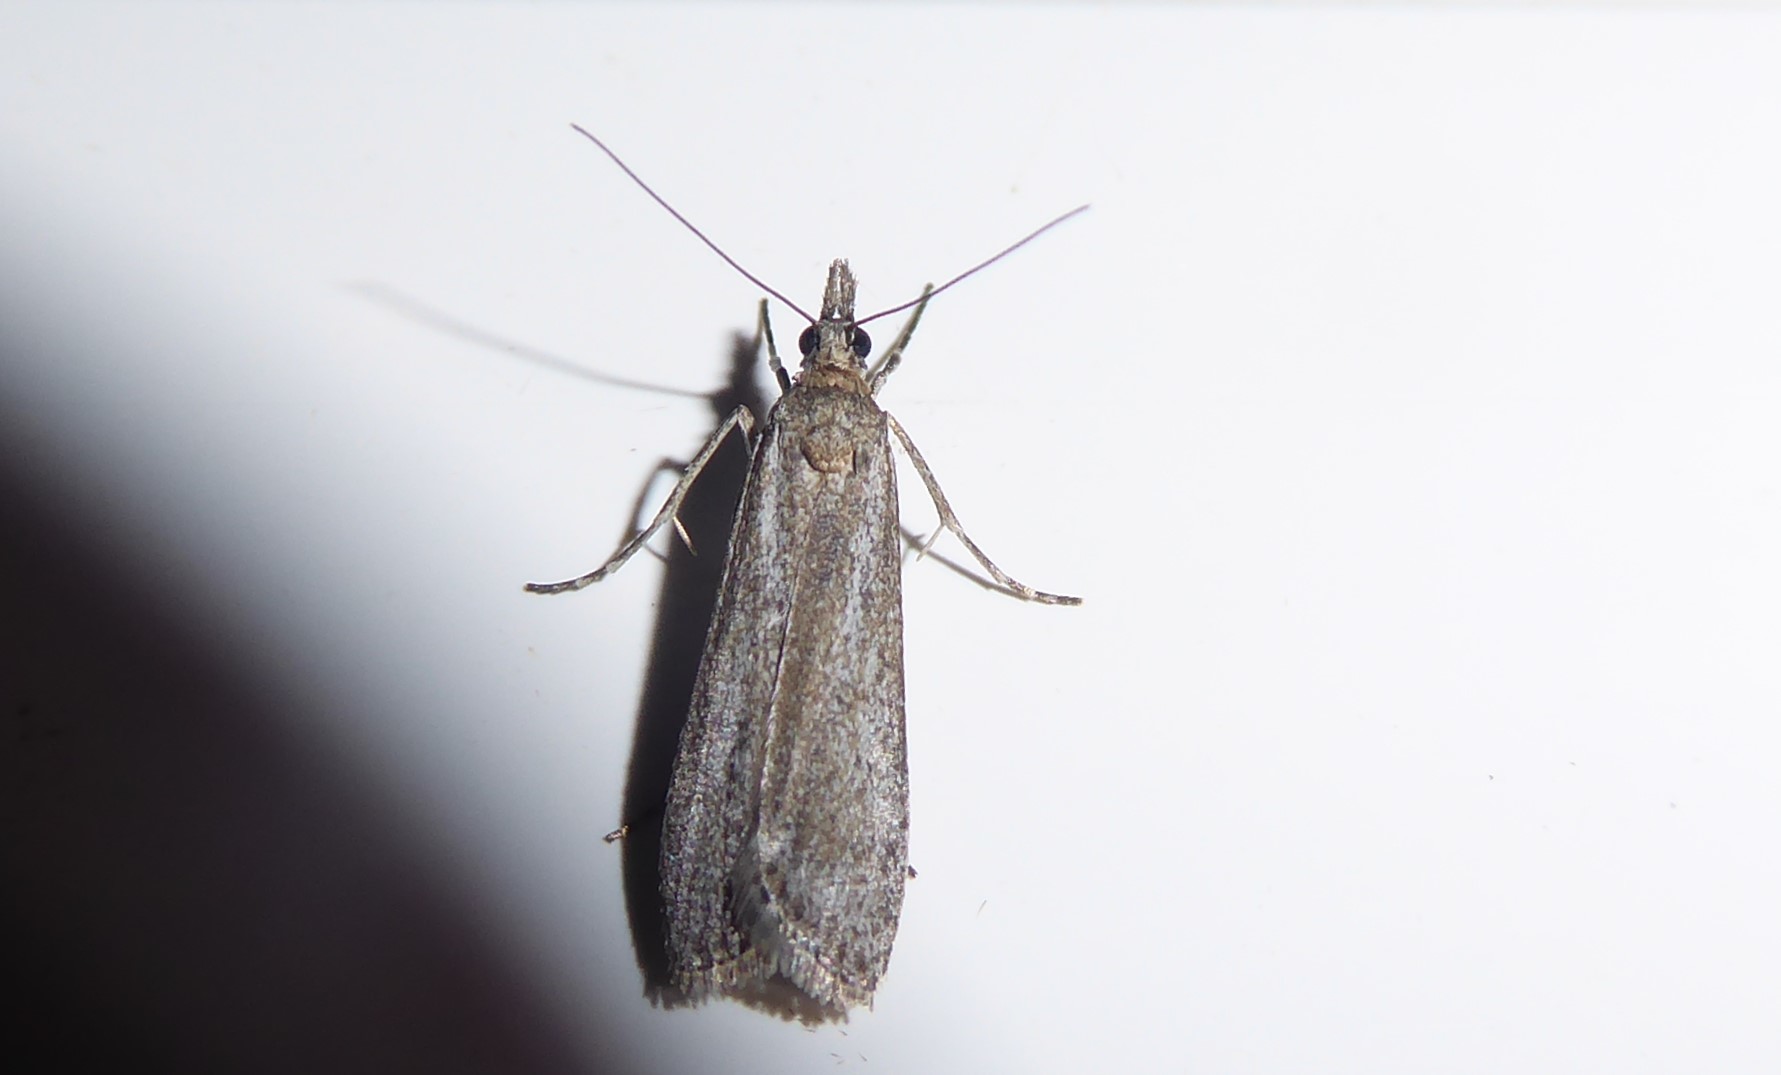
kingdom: Animalia
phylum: Arthropoda
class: Insecta
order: Lepidoptera
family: Crambidae
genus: Eudonia
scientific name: Eudonia leptalea
